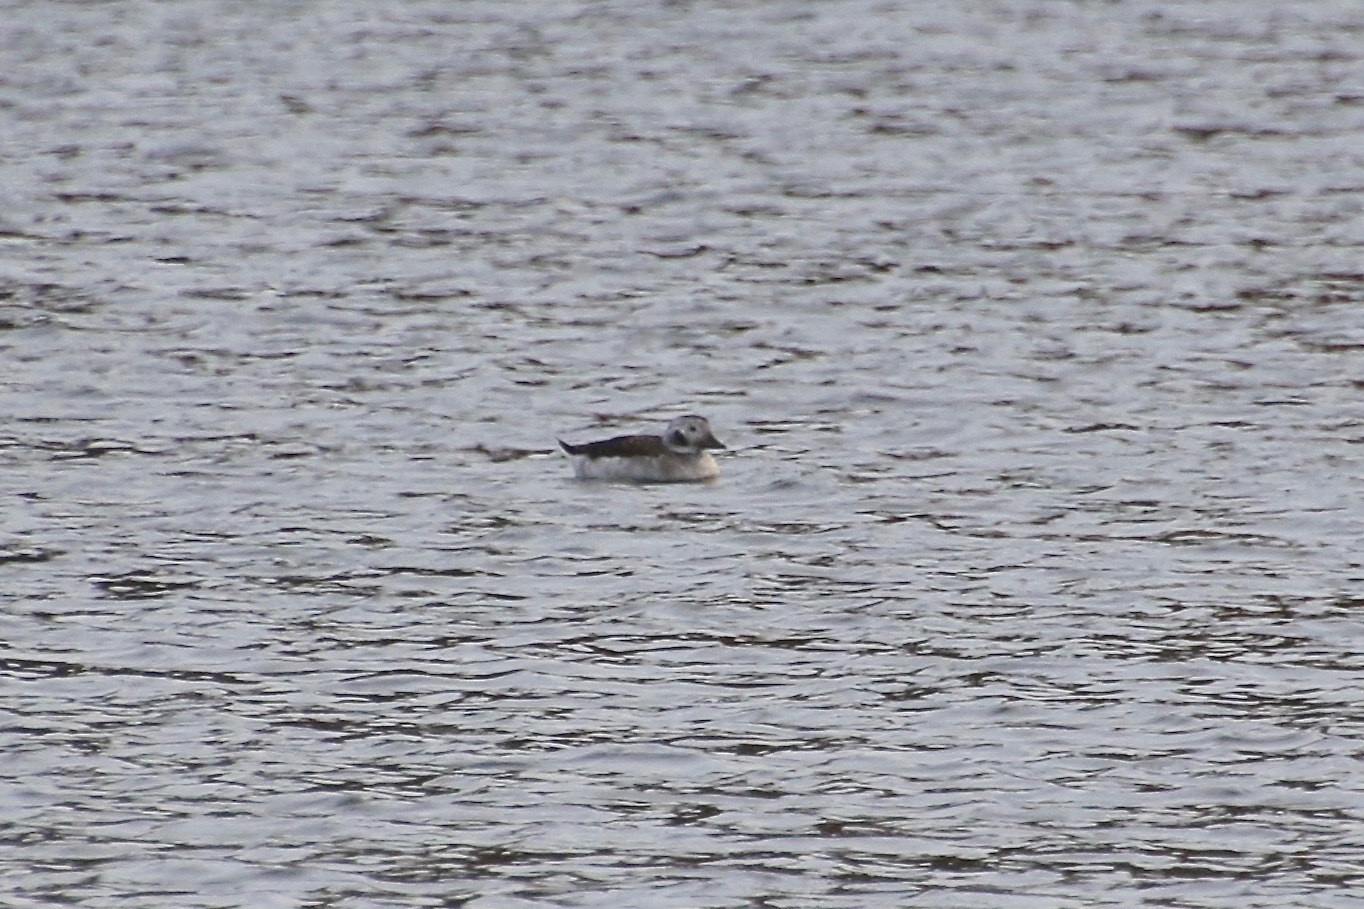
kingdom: Animalia
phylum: Chordata
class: Aves
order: Anseriformes
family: Anatidae
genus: Clangula
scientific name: Clangula hyemalis
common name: Long-tailed duck
